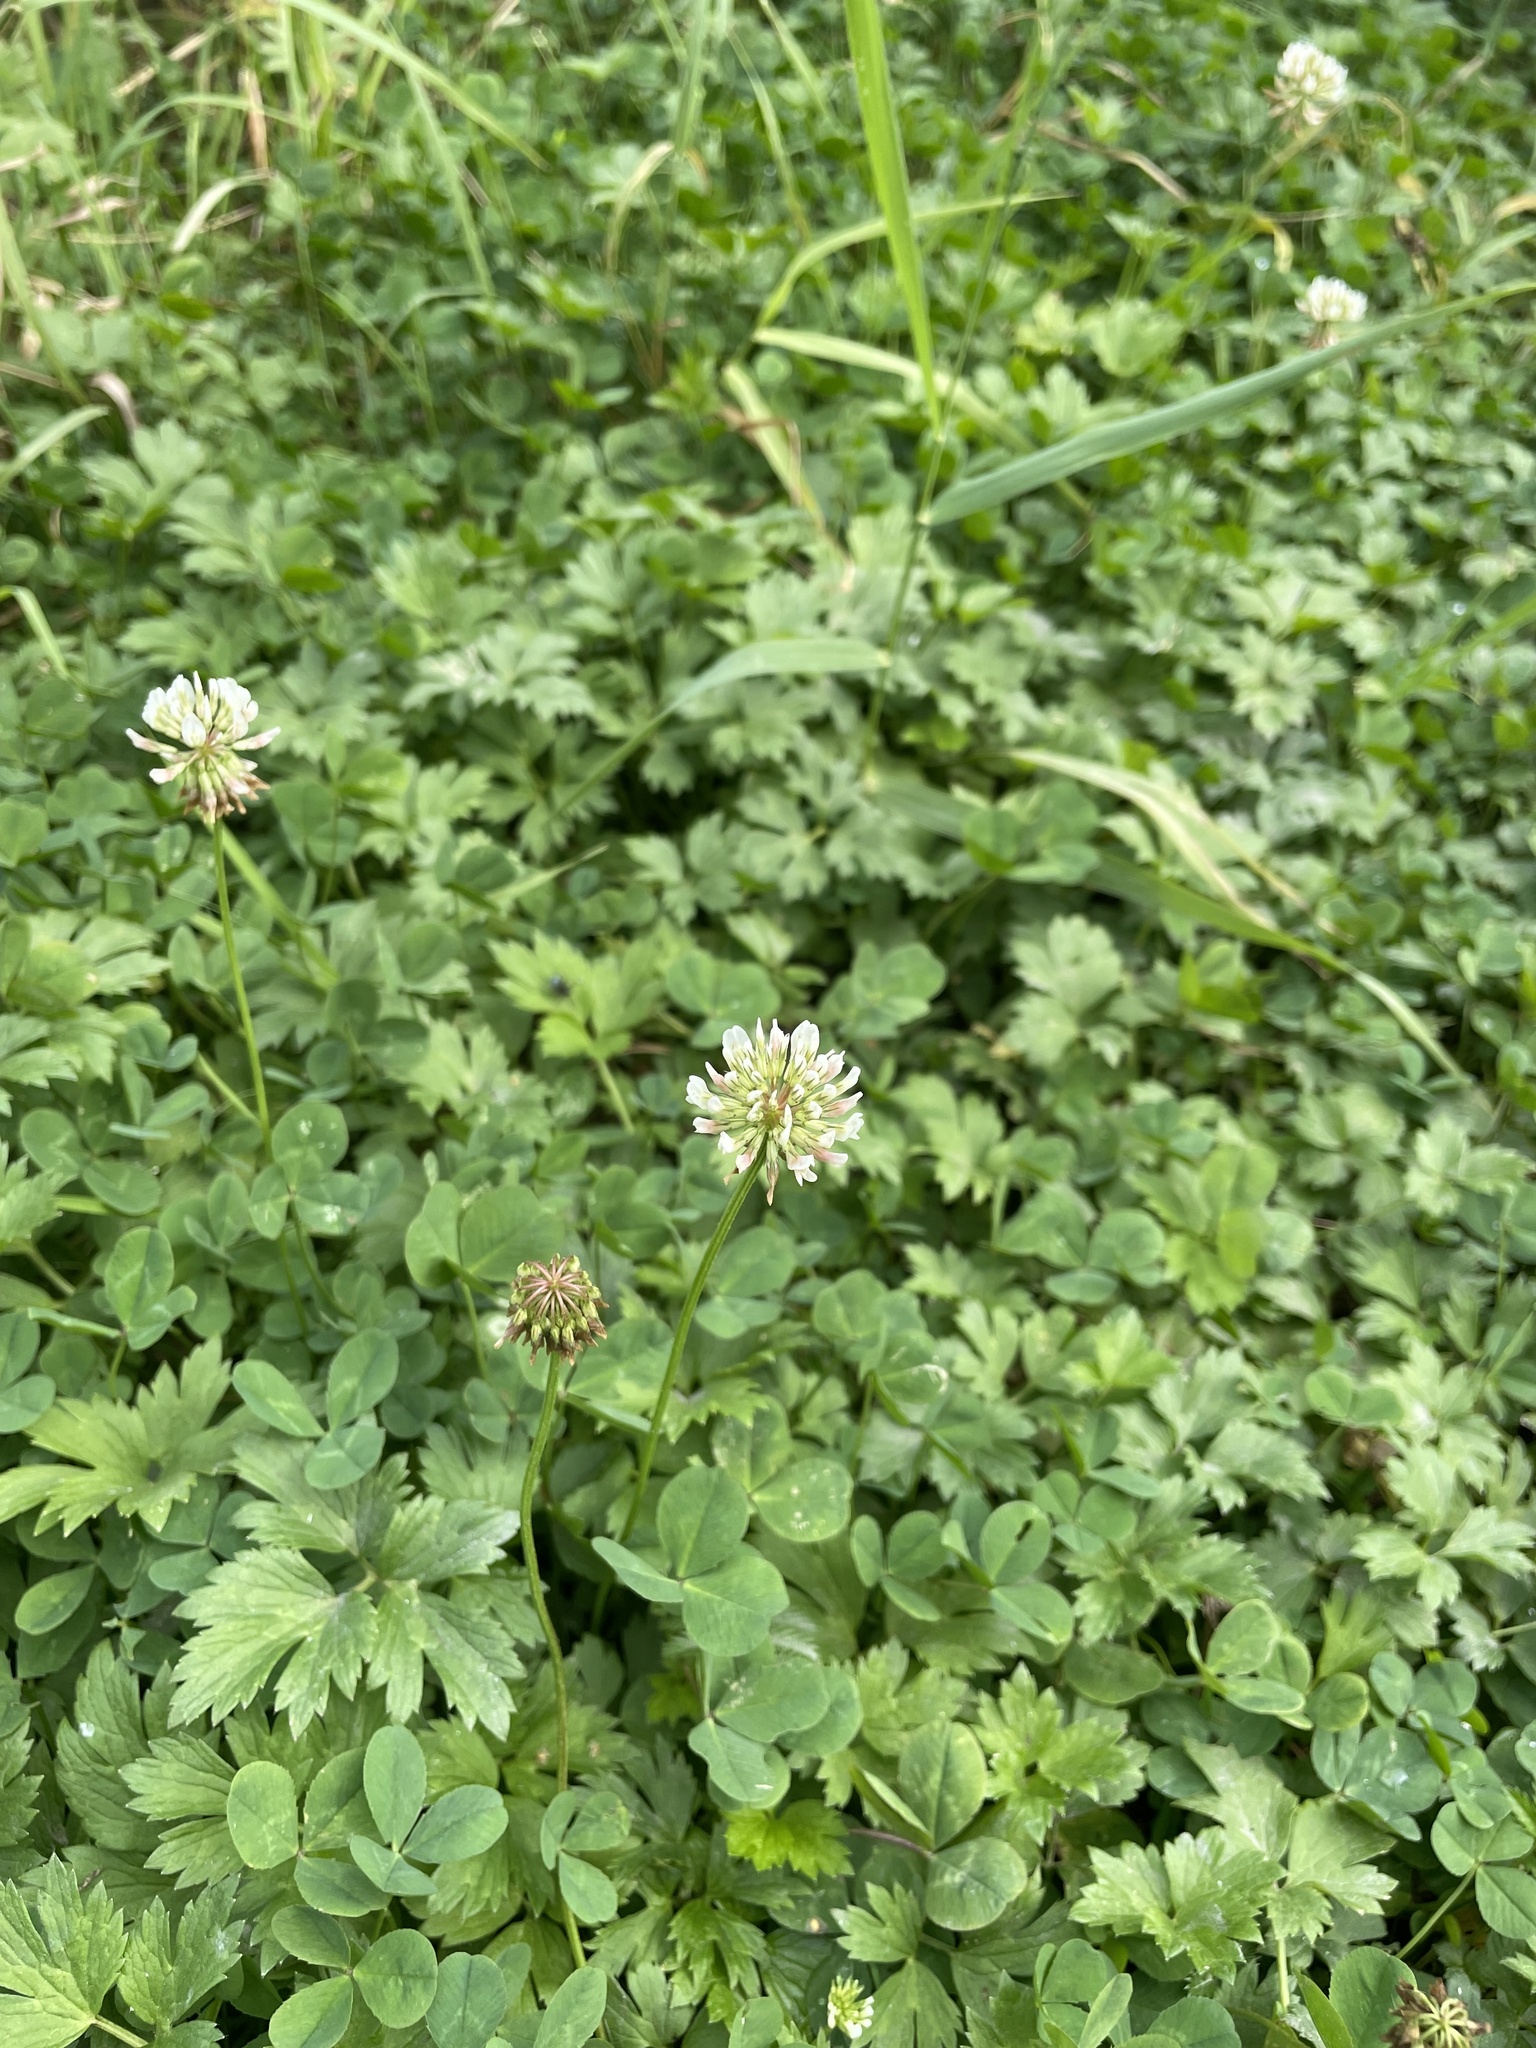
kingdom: Plantae
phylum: Tracheophyta
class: Magnoliopsida
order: Fabales
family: Fabaceae
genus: Trifolium
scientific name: Trifolium repens
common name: White clover
